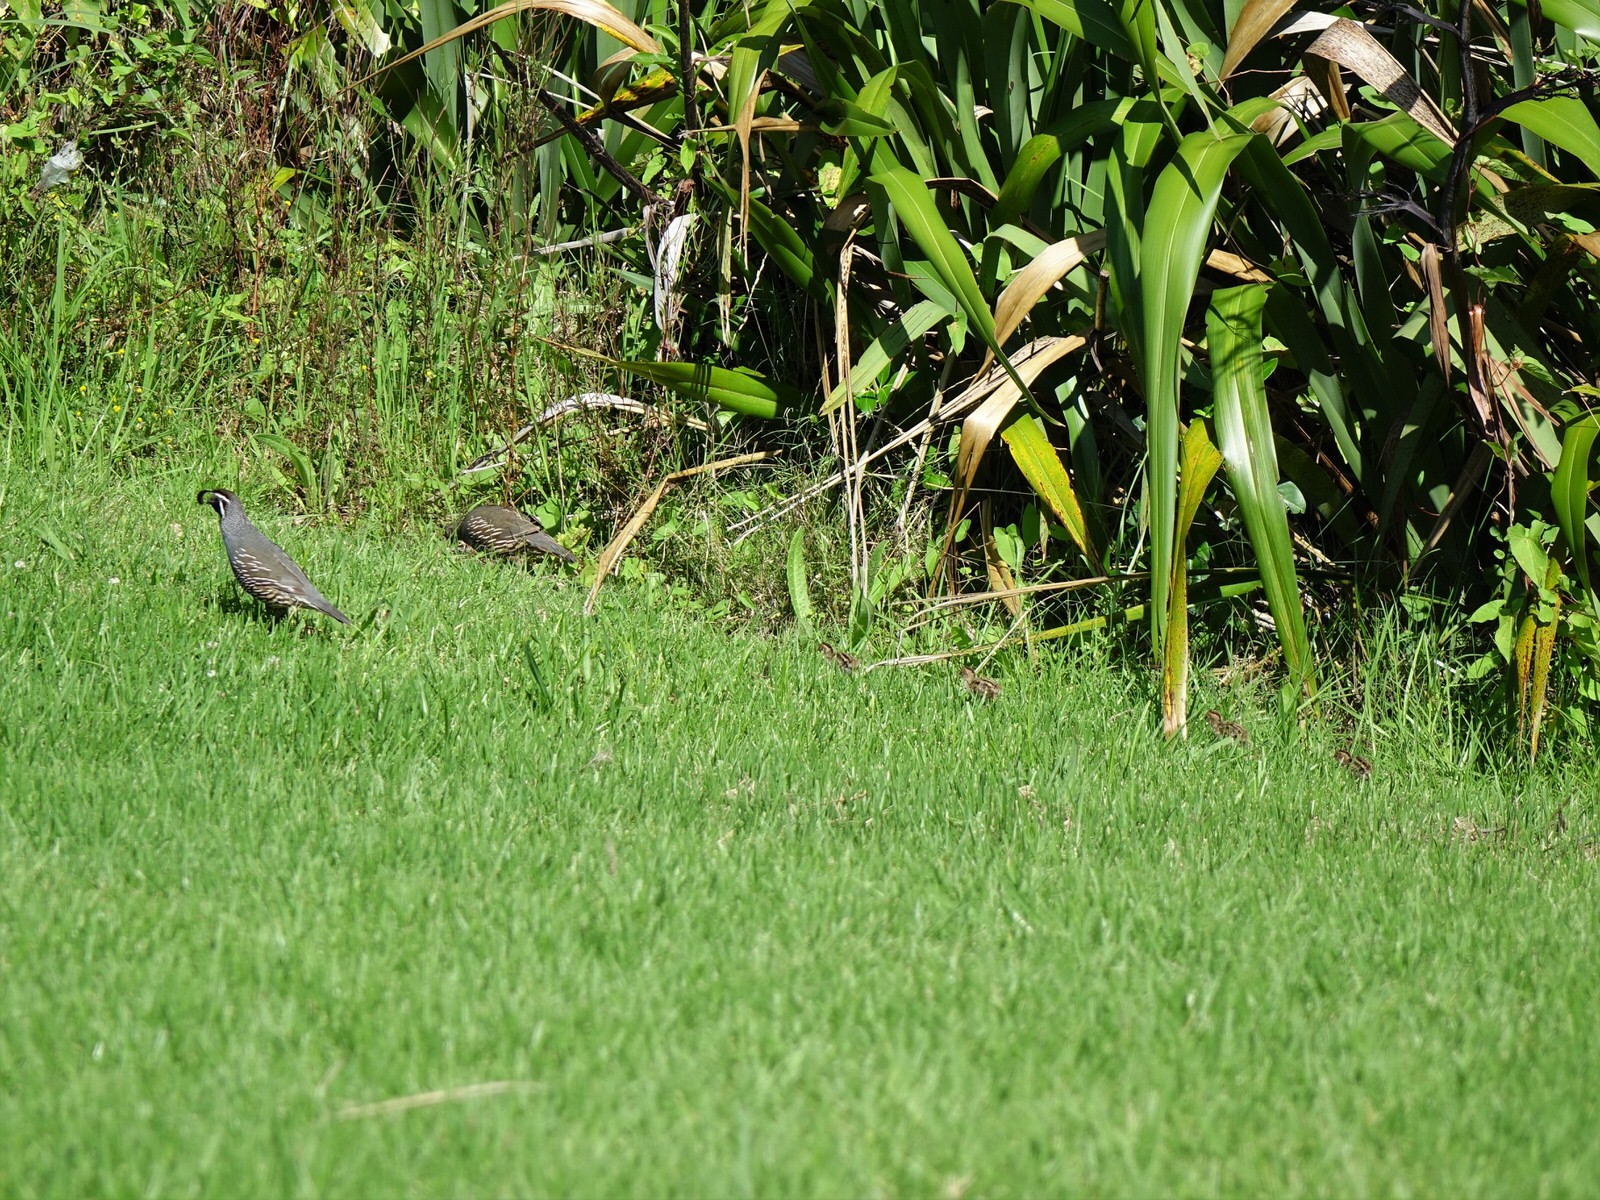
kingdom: Animalia
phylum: Chordata
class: Aves
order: Galliformes
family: Odontophoridae
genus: Callipepla
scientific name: Callipepla californica
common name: California quail
